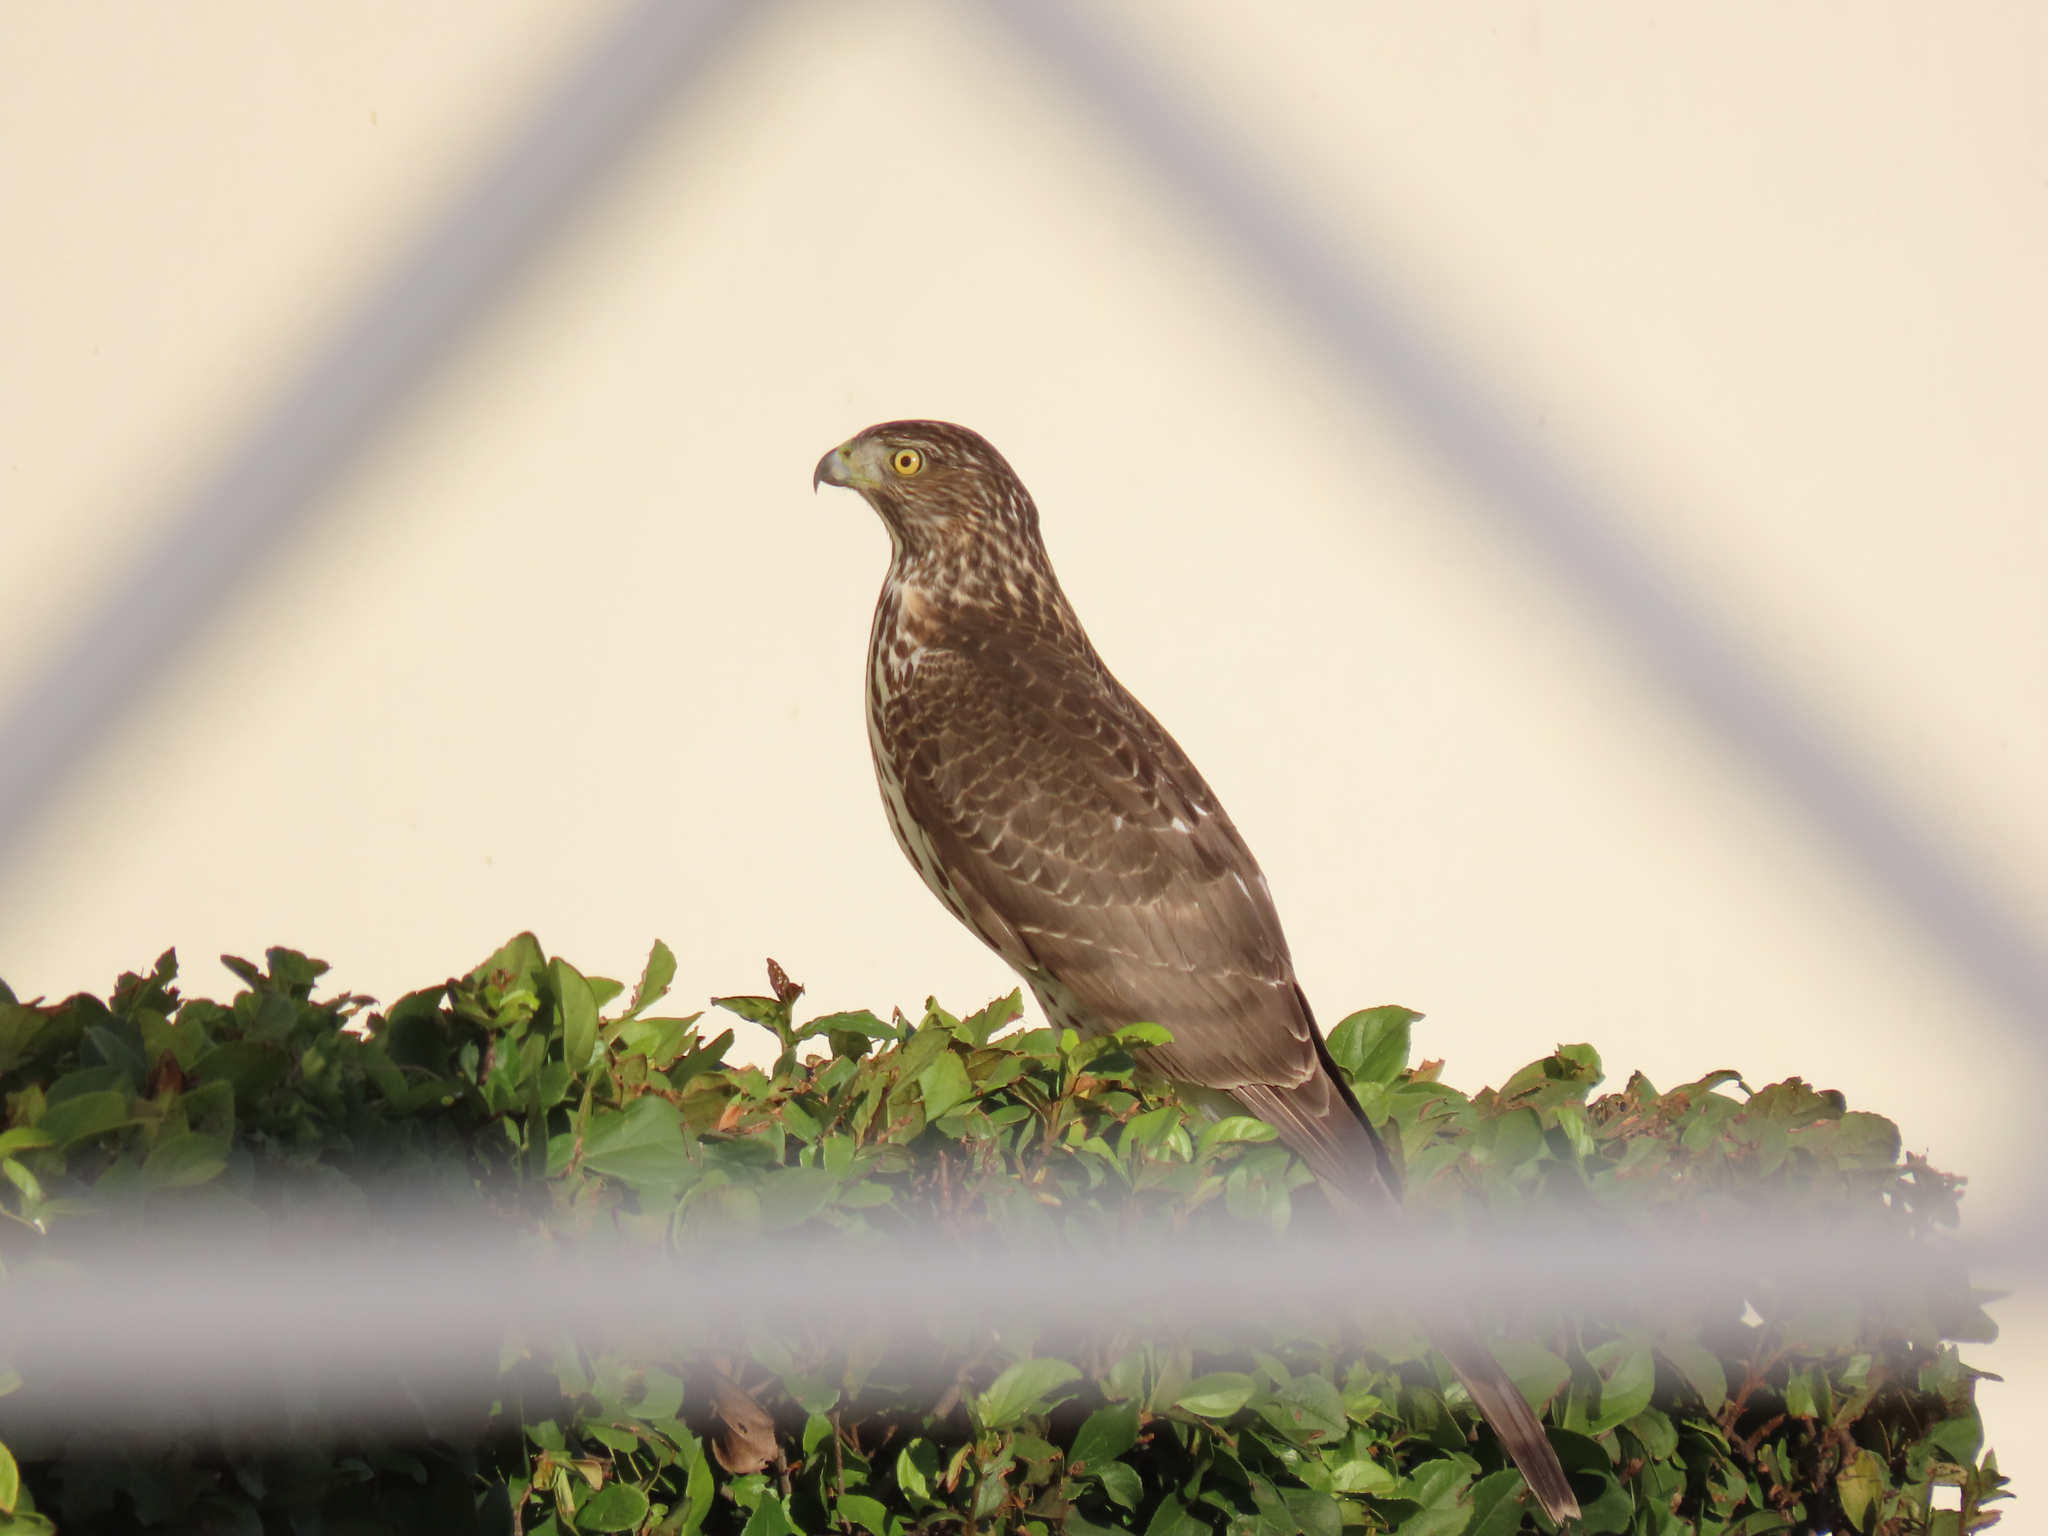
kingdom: Animalia
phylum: Chordata
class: Aves
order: Accipitriformes
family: Accipitridae
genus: Accipiter
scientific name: Accipiter cooperii
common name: Cooper's hawk
